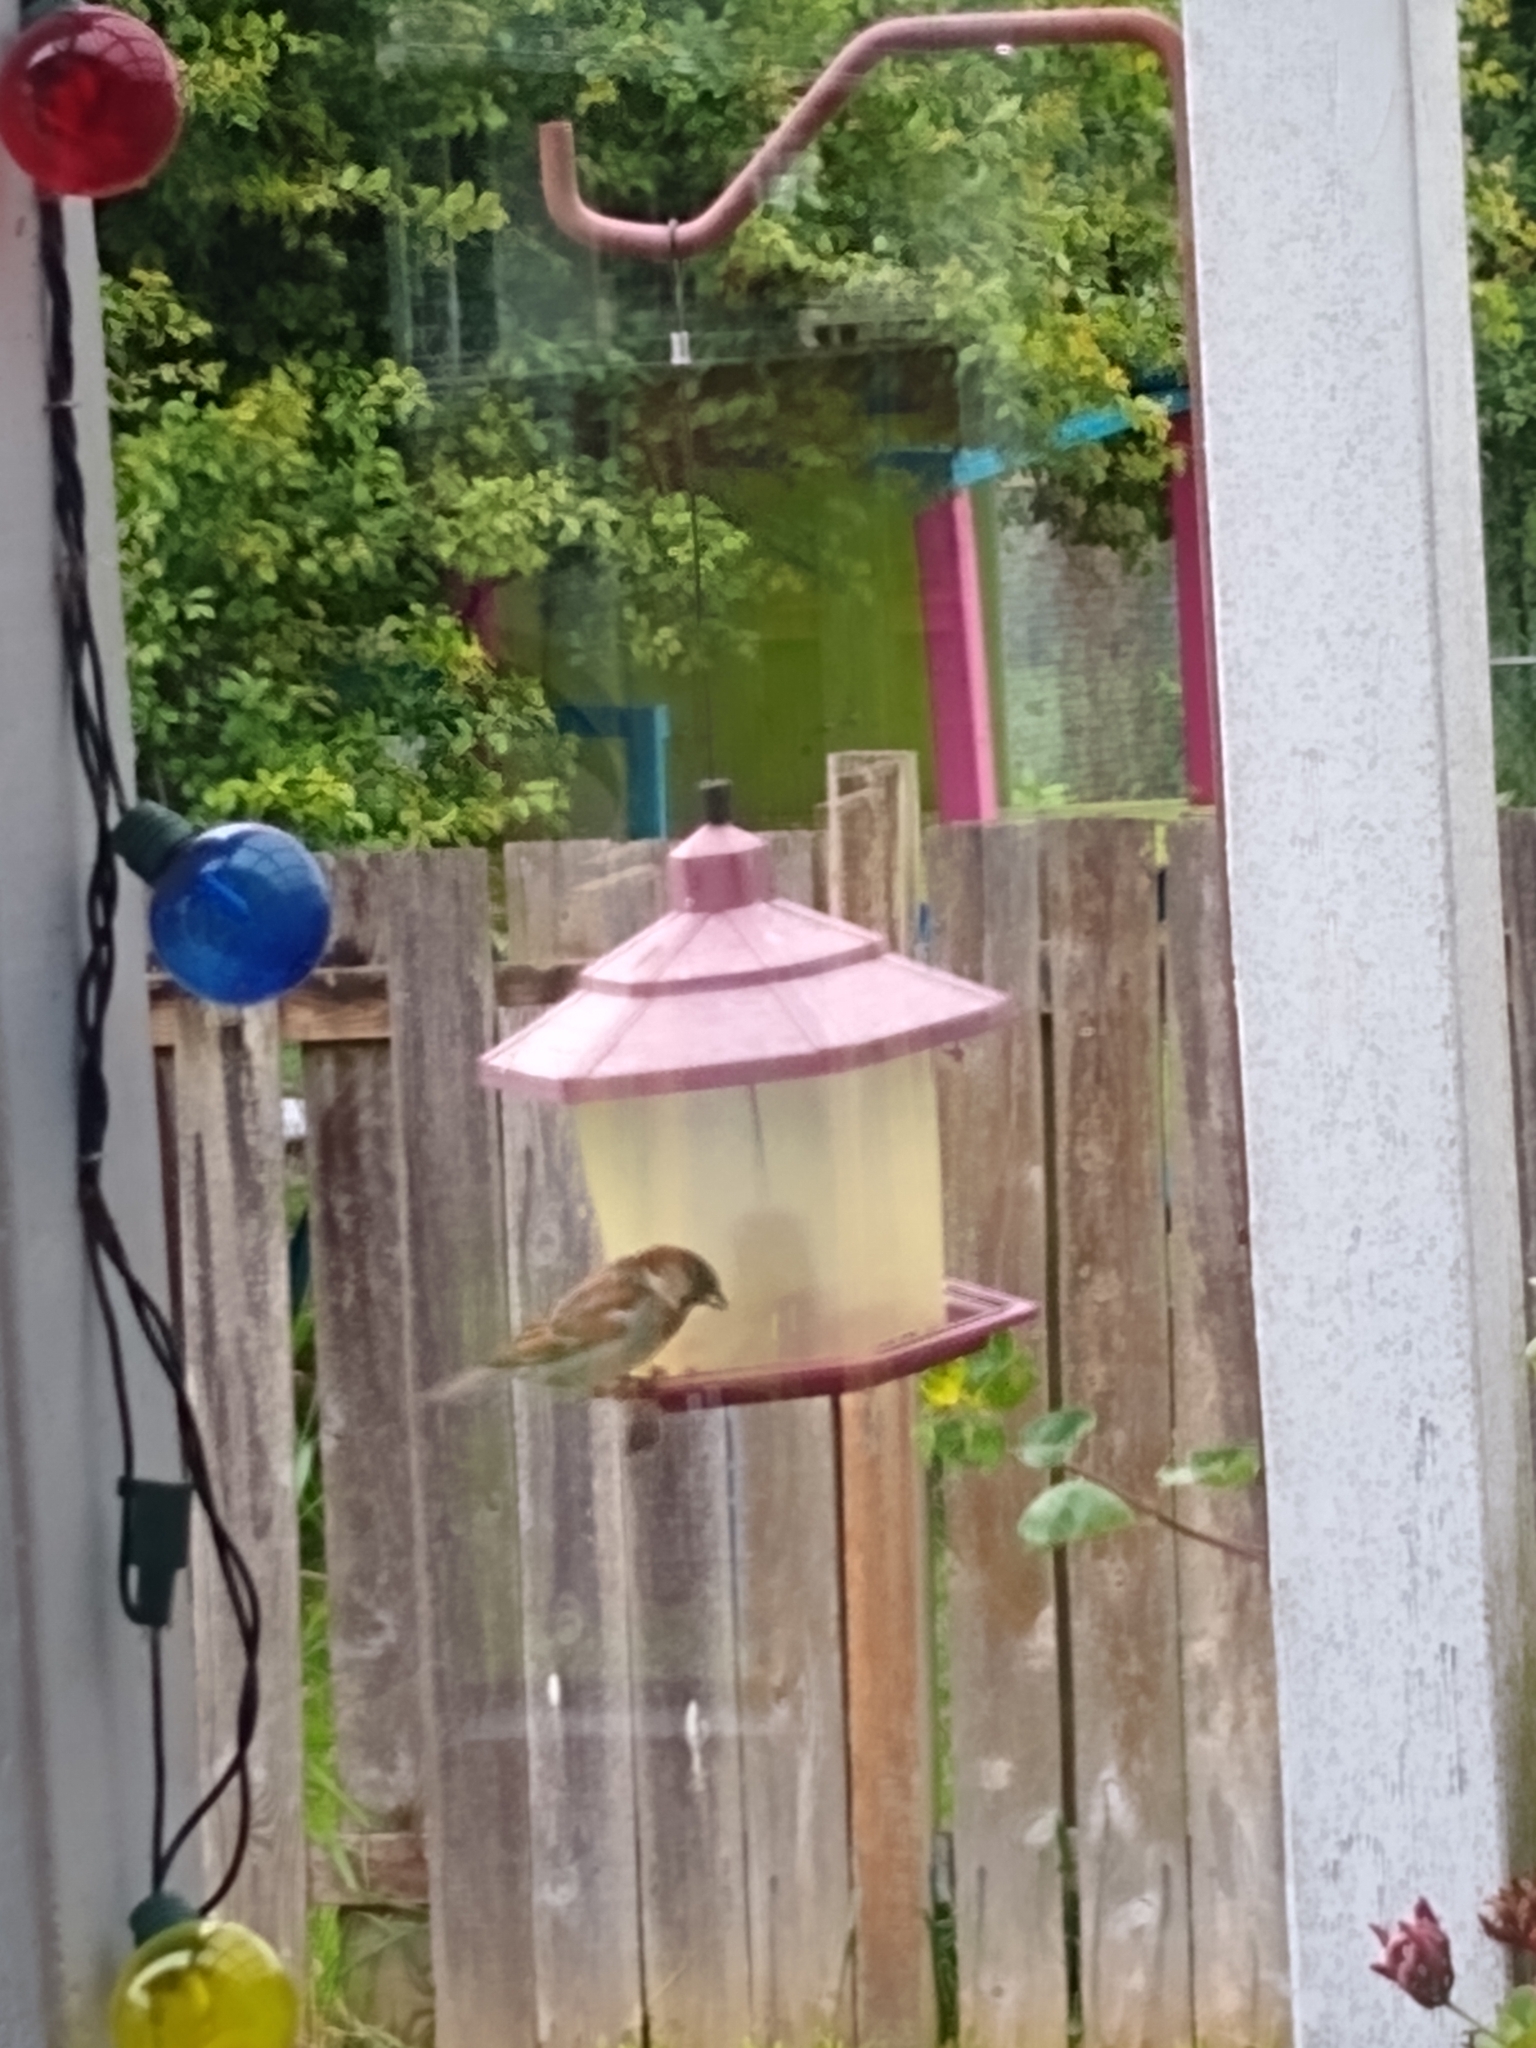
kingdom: Animalia
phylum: Chordata
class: Aves
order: Passeriformes
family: Passeridae
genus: Passer
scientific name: Passer domesticus
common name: House sparrow
